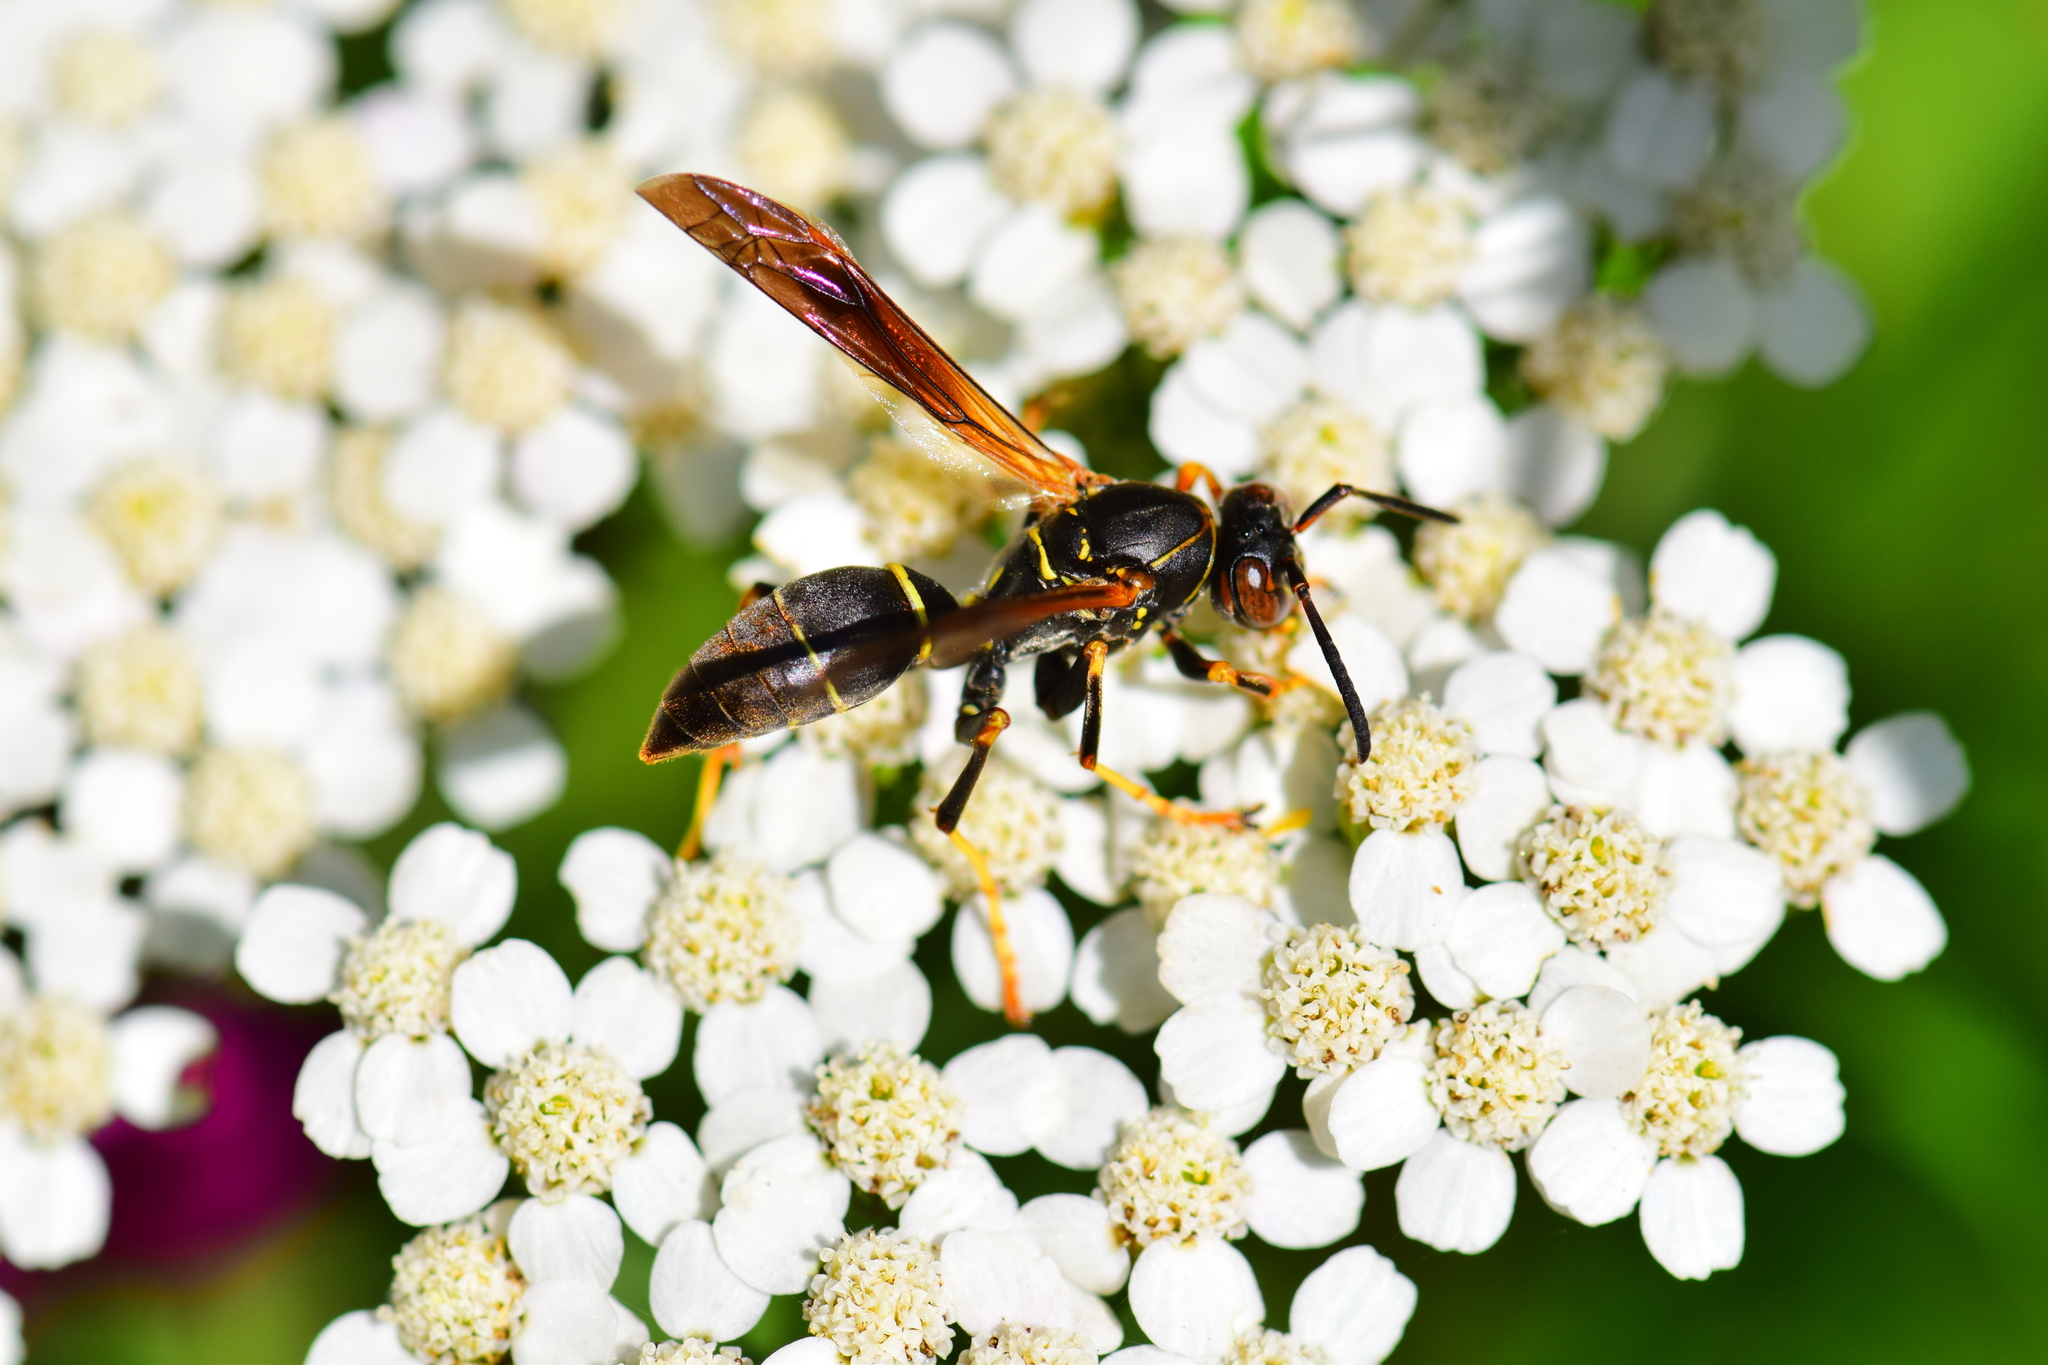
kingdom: Animalia
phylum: Arthropoda
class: Insecta
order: Hymenoptera
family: Eumenidae
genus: Polistes
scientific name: Polistes fuscatus
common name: Dark paper wasp
